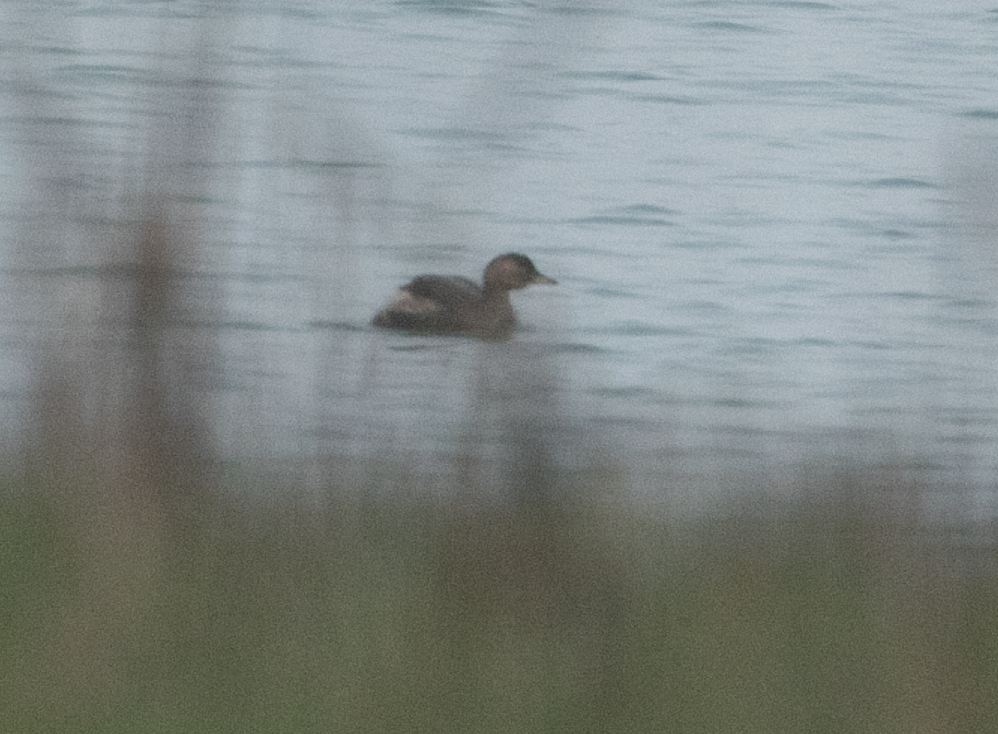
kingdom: Animalia
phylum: Chordata
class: Aves
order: Podicipediformes
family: Podicipedidae
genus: Tachybaptus
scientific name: Tachybaptus ruficollis
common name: Little grebe
